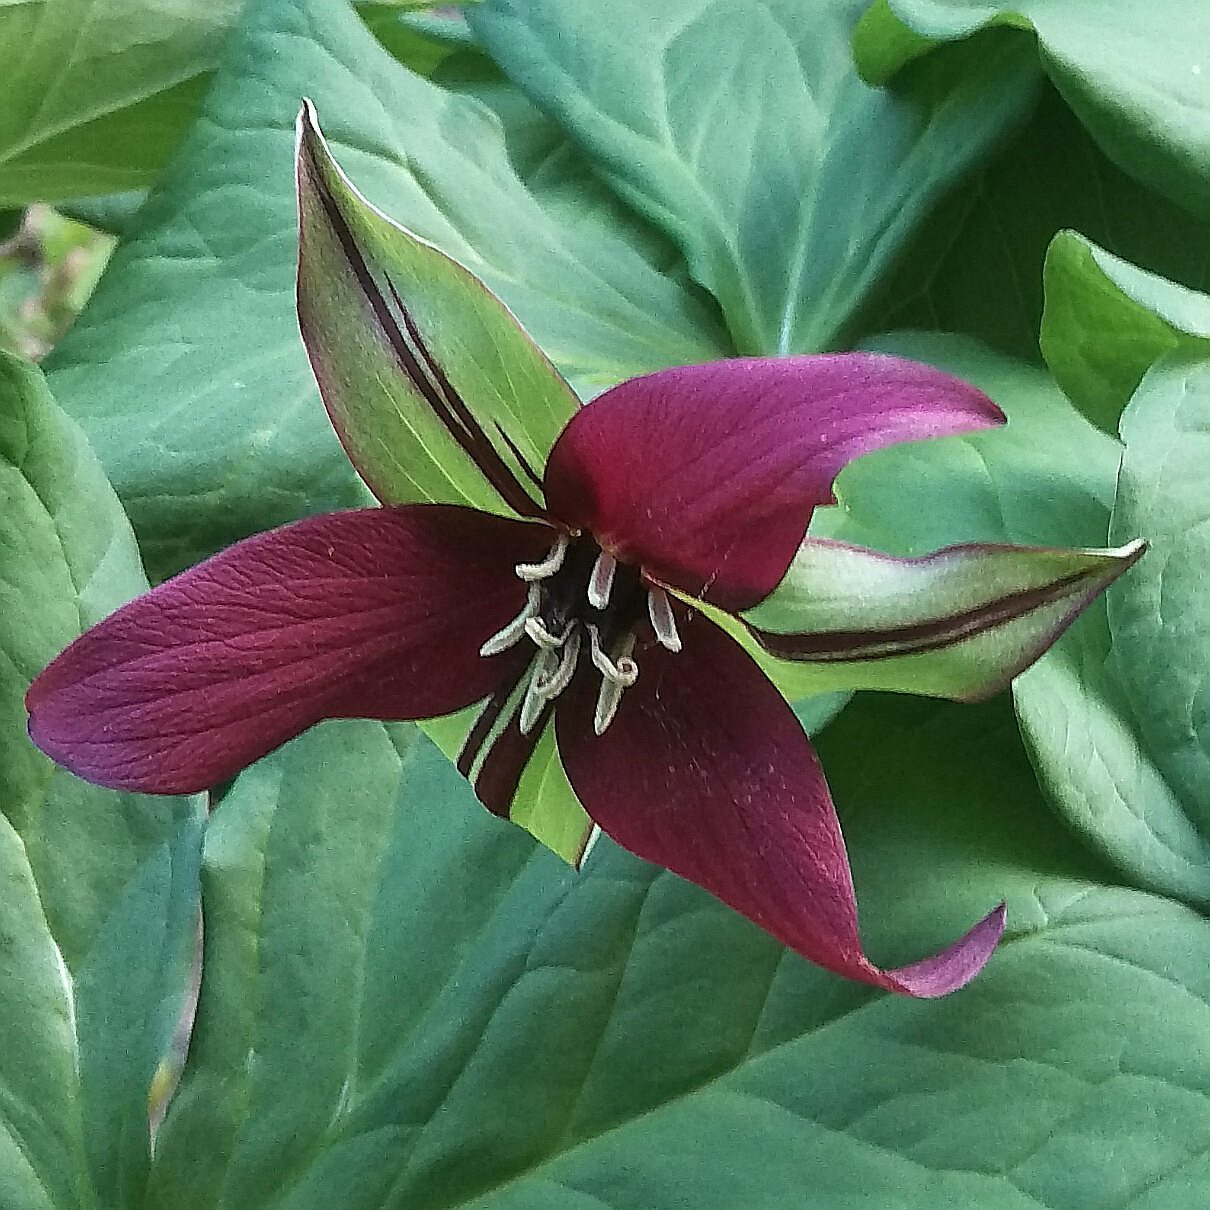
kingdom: Plantae
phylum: Tracheophyta
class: Liliopsida
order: Liliales
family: Melanthiaceae
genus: Trillium
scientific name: Trillium erectum
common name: Purple trillium
